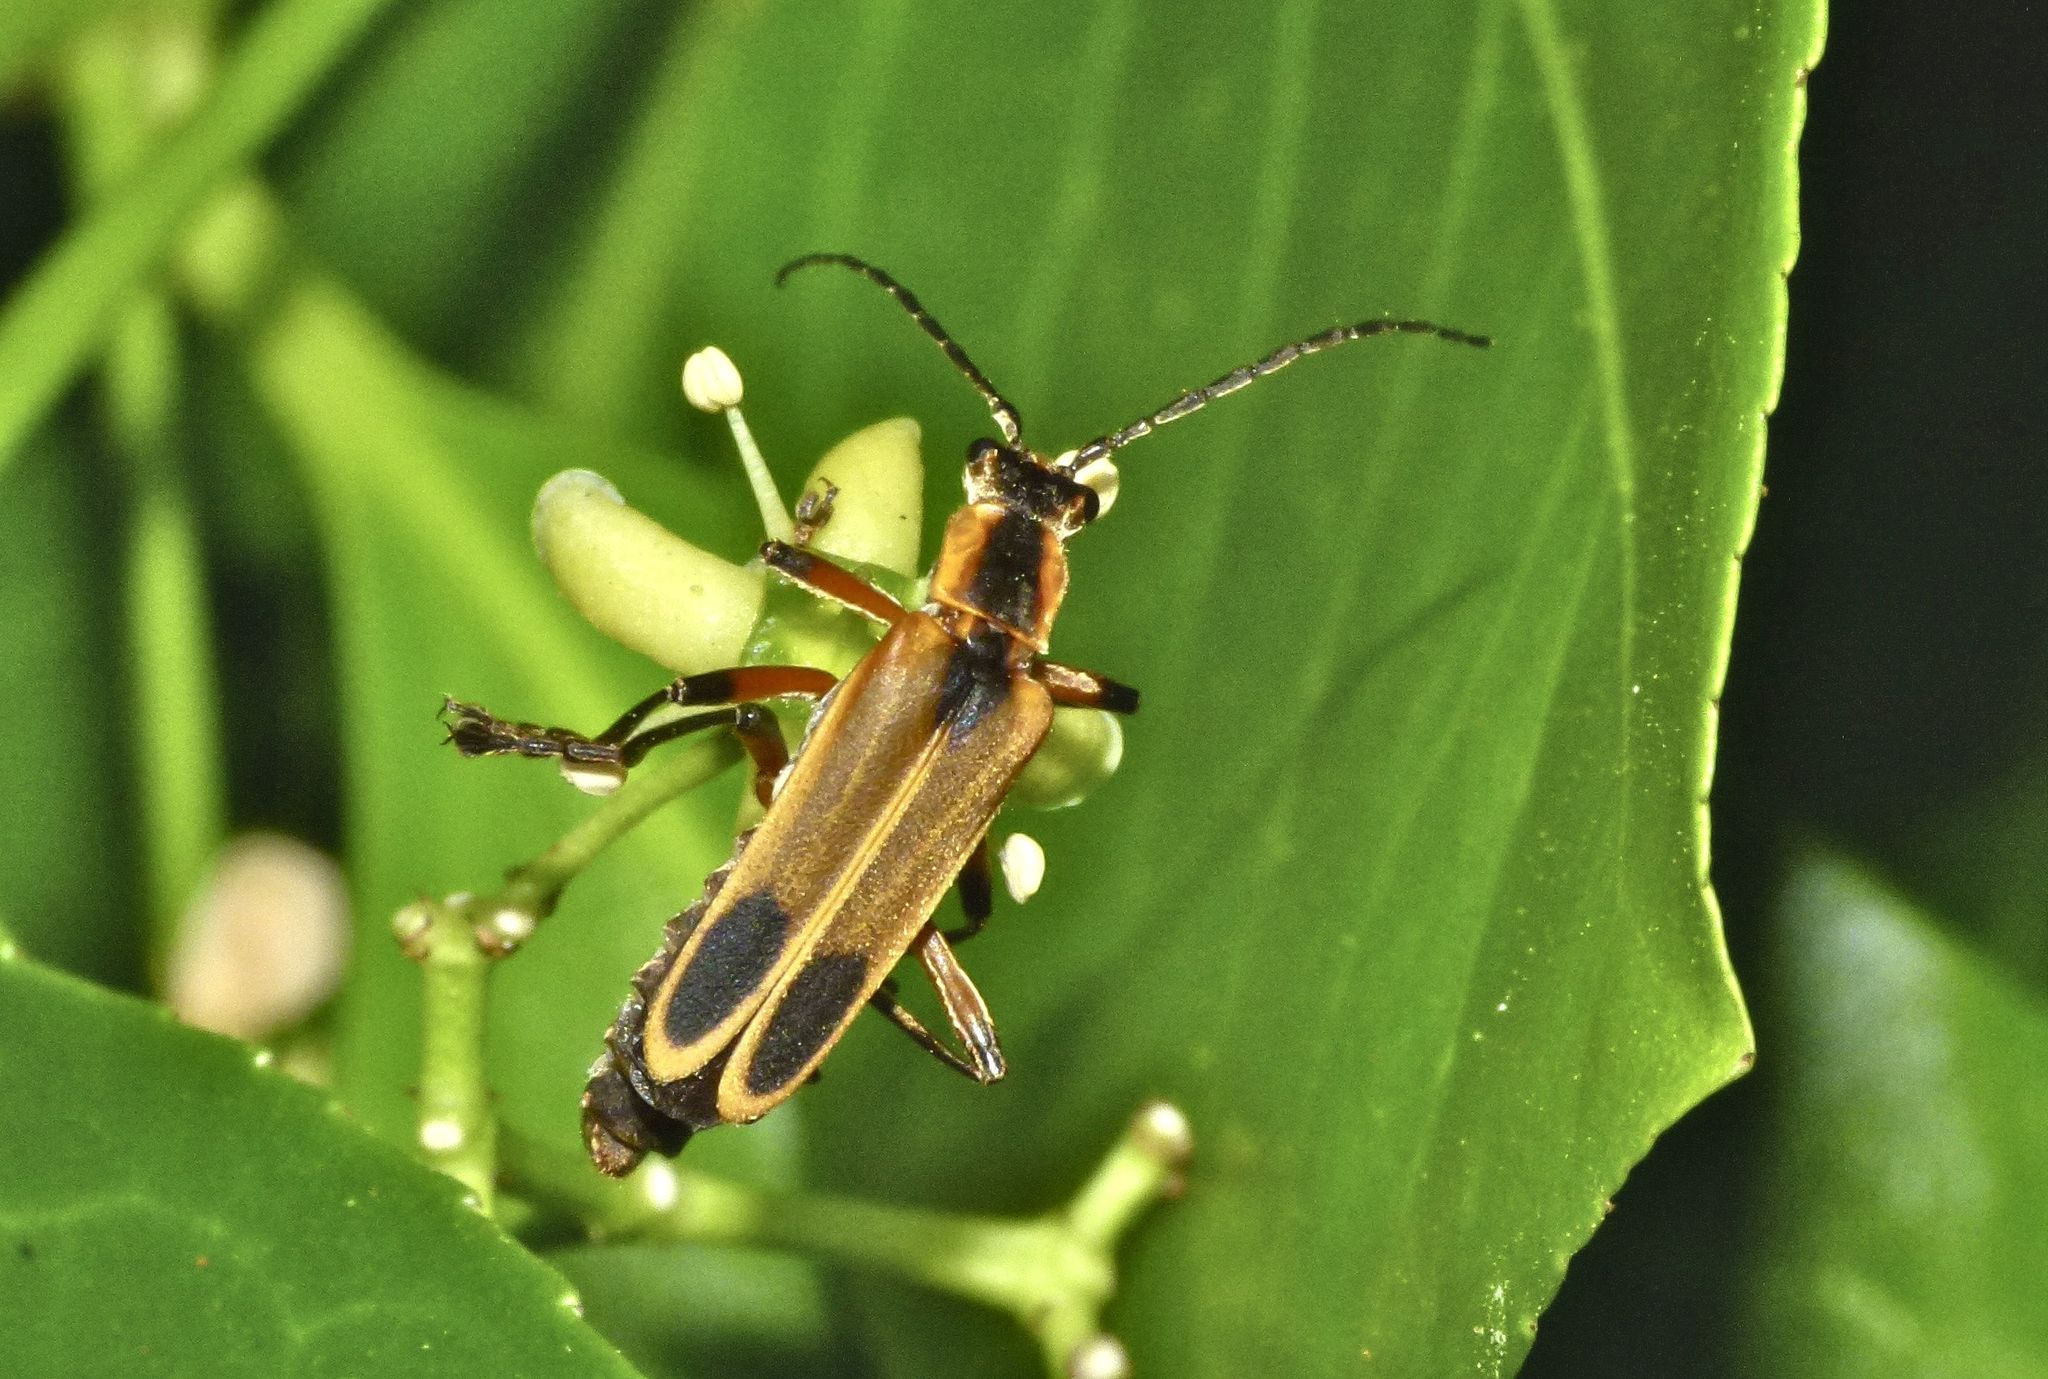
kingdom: Animalia
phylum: Arthropoda
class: Insecta
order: Coleoptera
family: Cantharidae
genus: Chauliognathus
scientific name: Chauliognathus marginatus
